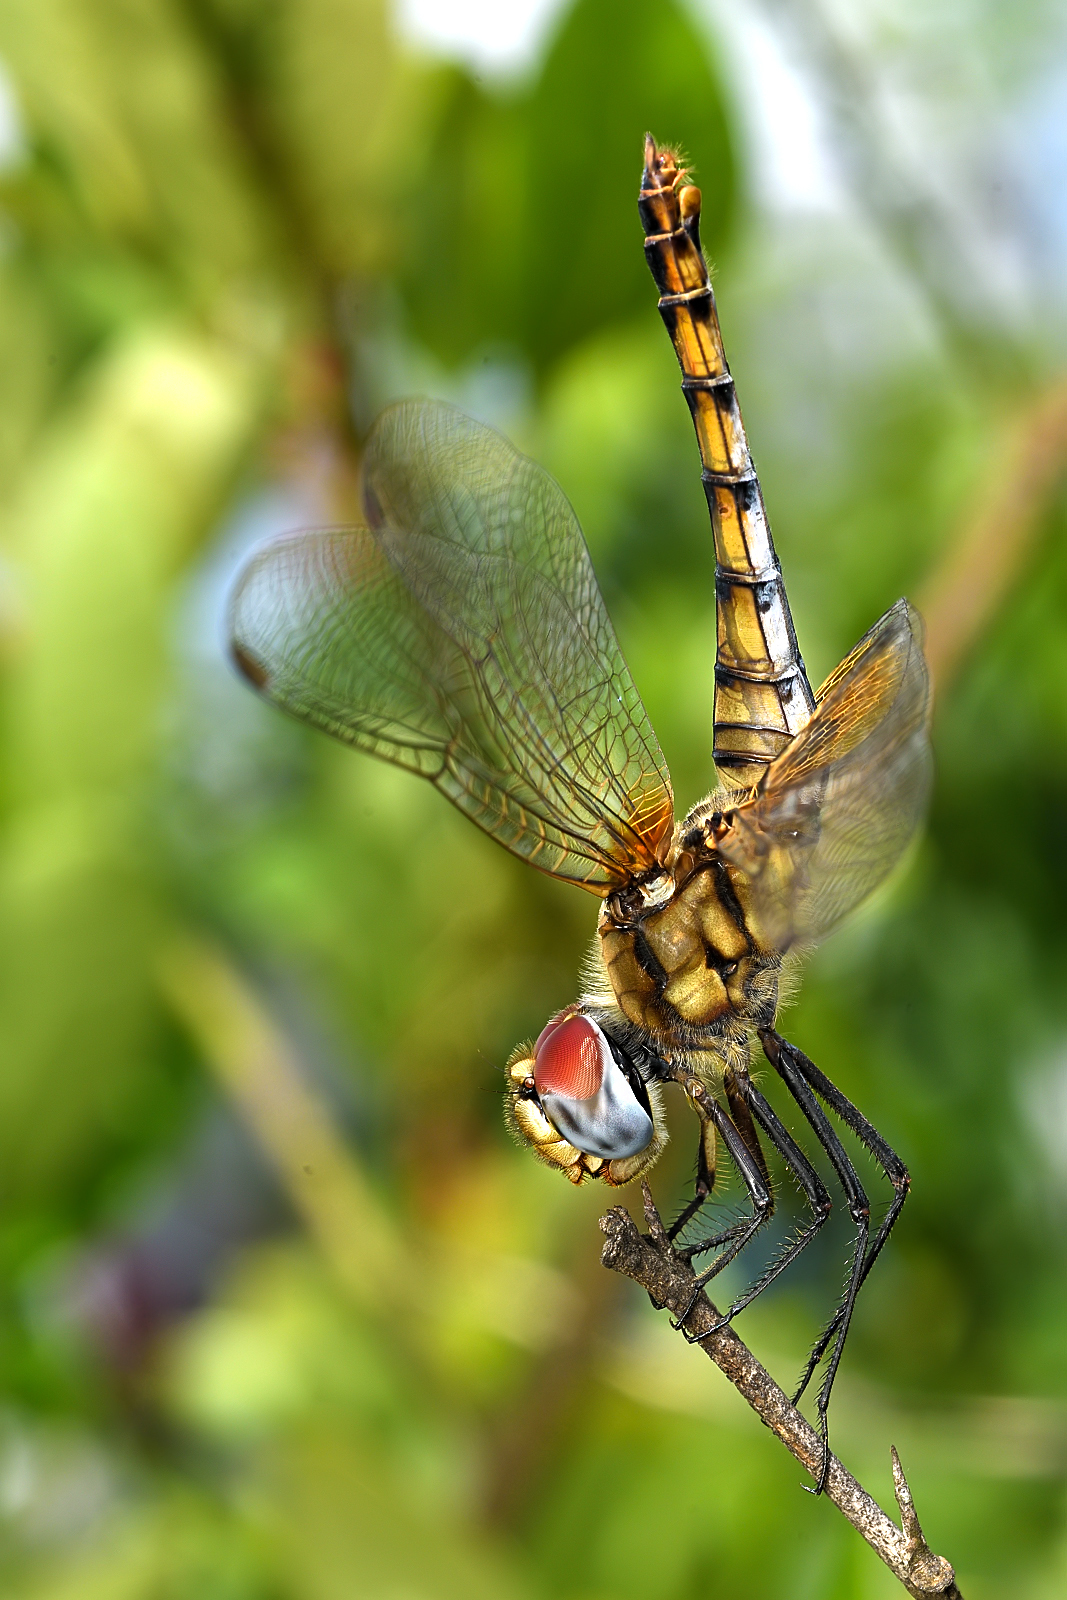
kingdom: Animalia
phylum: Arthropoda
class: Insecta
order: Odonata
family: Libellulidae
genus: Urothemis
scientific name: Urothemis signata
